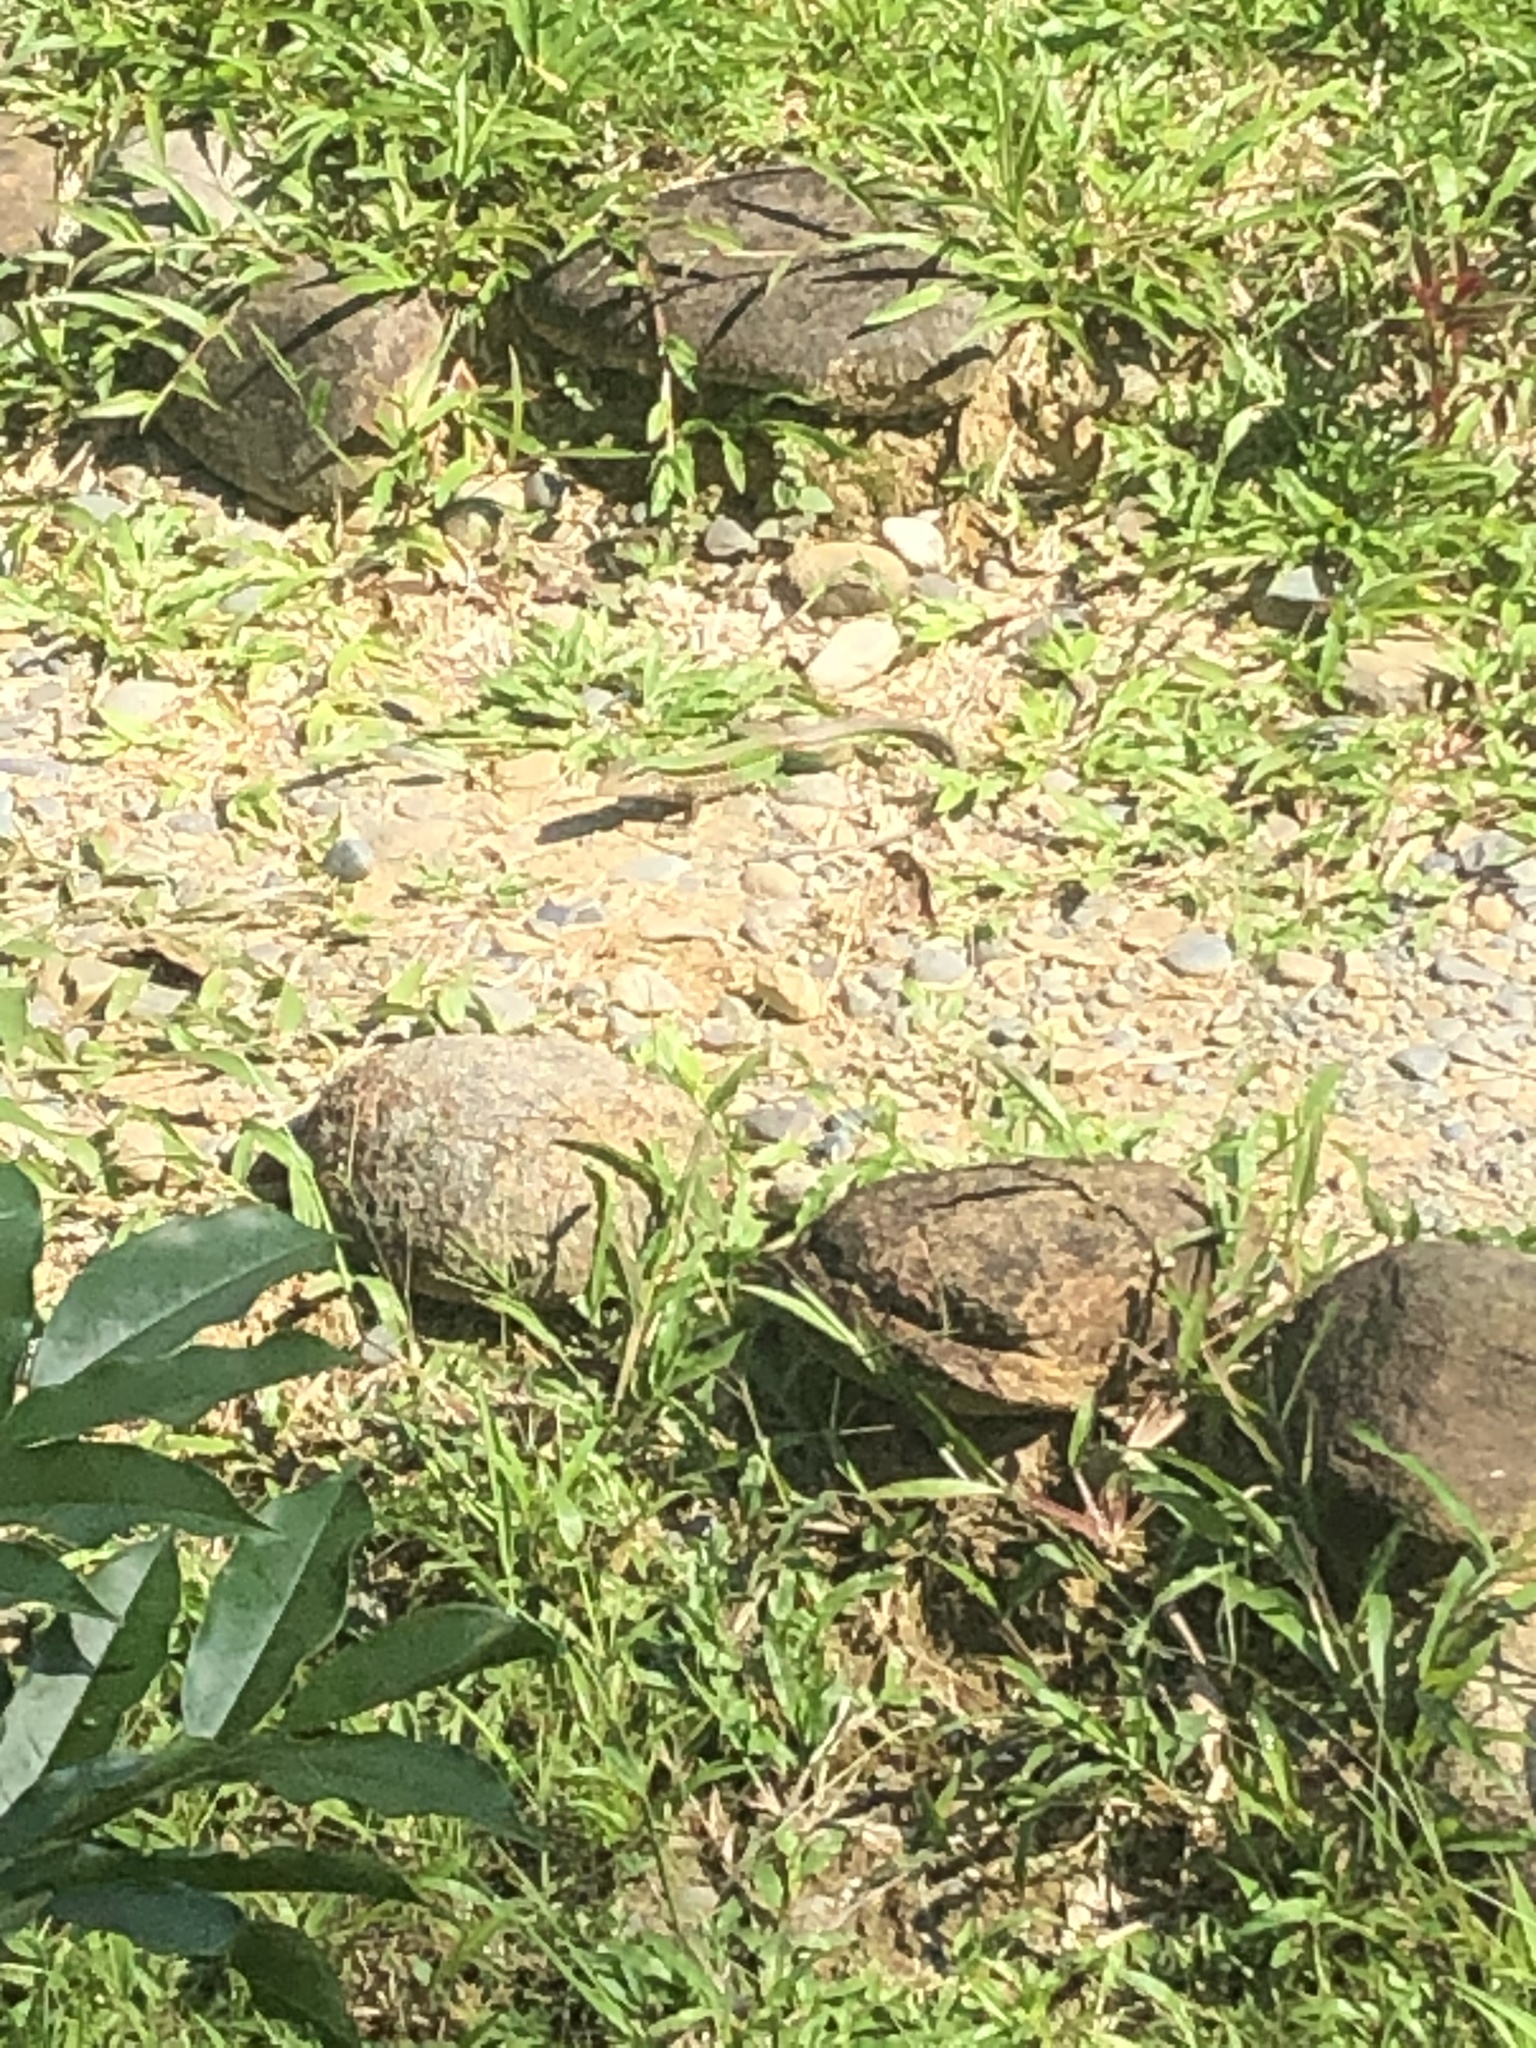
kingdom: Animalia
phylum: Chordata
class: Squamata
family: Teiidae
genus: Ameiva
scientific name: Ameiva ameiva
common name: Giant ameiva
